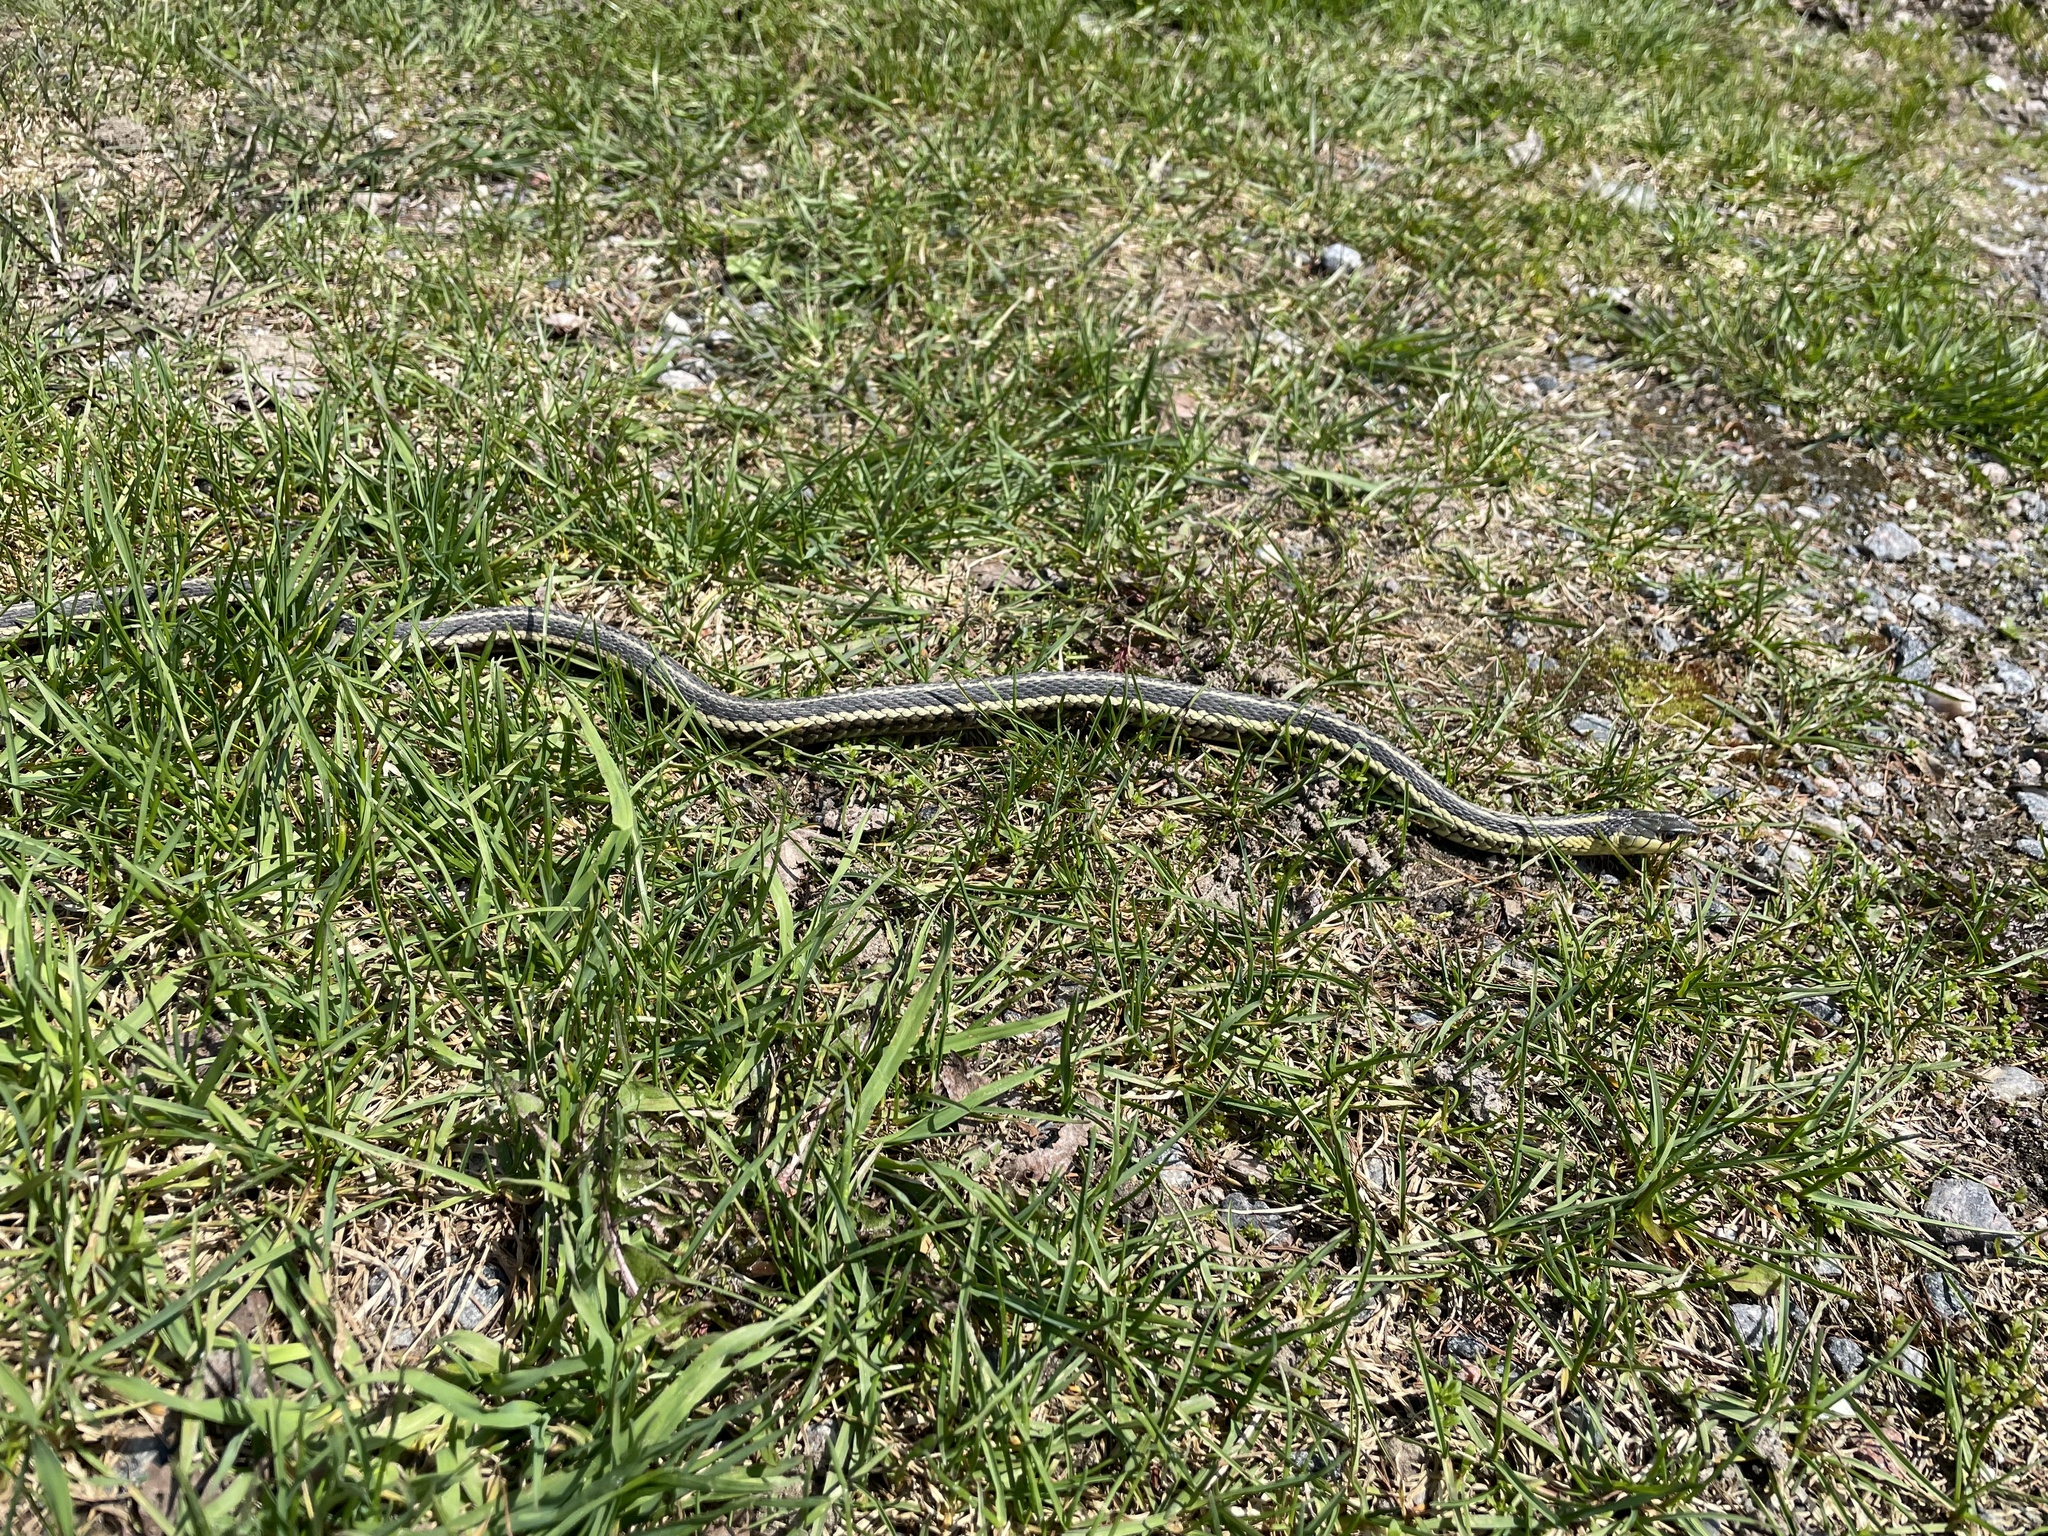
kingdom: Animalia
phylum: Chordata
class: Squamata
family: Colubridae
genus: Thamnophis
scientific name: Thamnophis sirtalis
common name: Common garter snake
